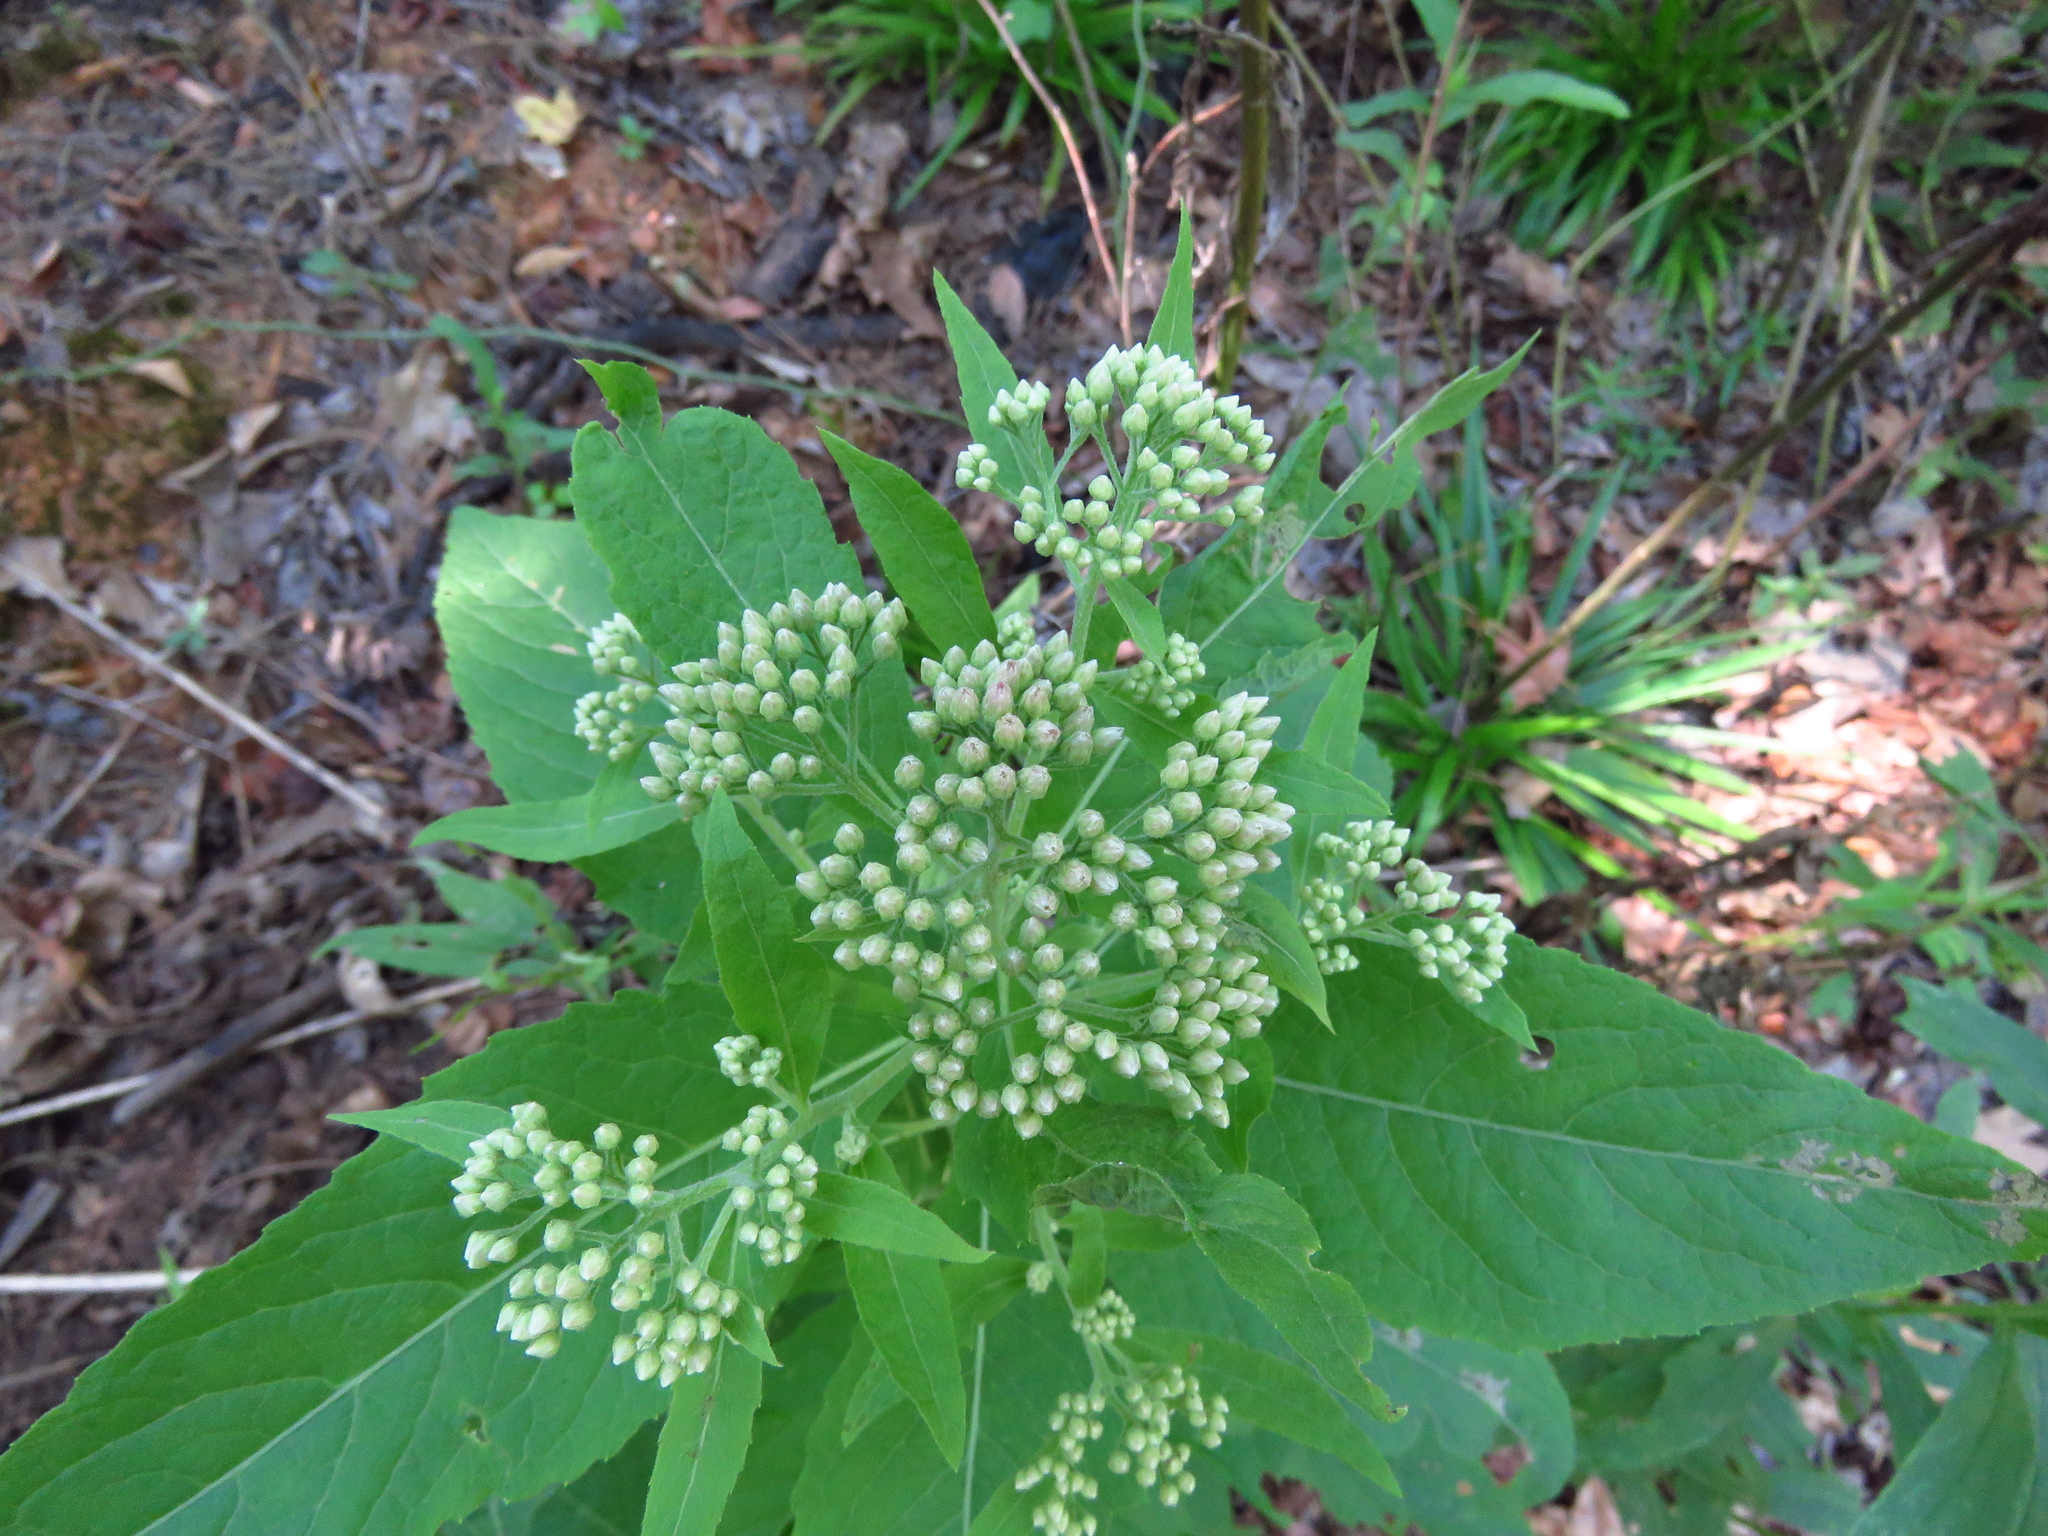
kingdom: Plantae
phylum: Tracheophyta
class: Magnoliopsida
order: Asterales
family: Asteraceae
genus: Pluchea
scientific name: Pluchea camphorata
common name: Camphor pluchea
